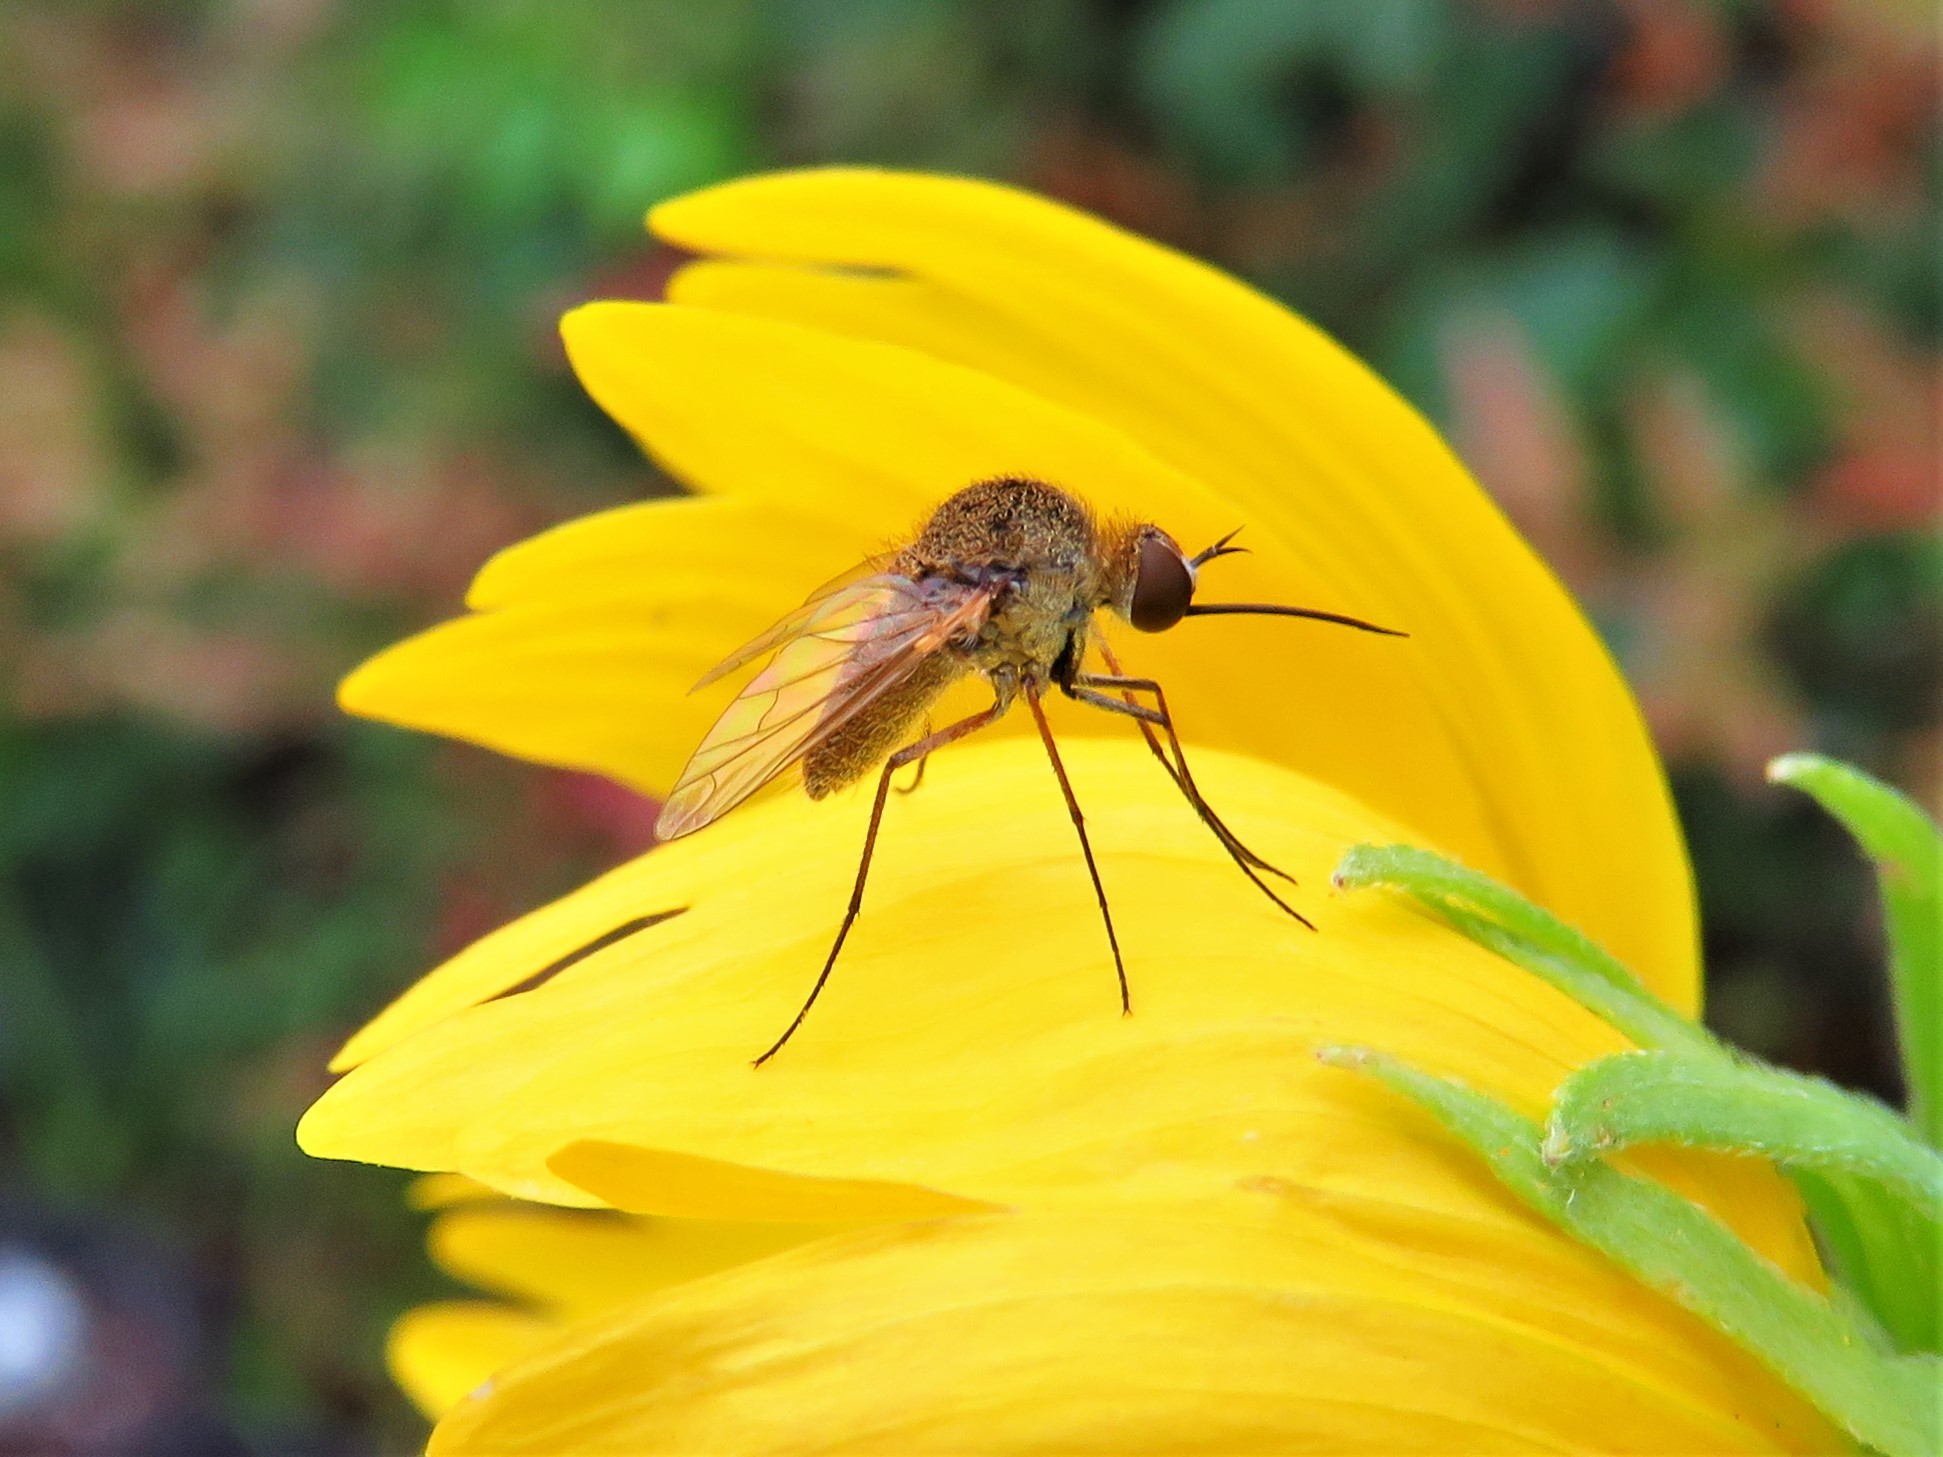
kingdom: Animalia
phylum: Arthropoda
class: Insecta
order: Diptera
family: Bombyliidae
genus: Geron
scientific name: Geron vitripennis
